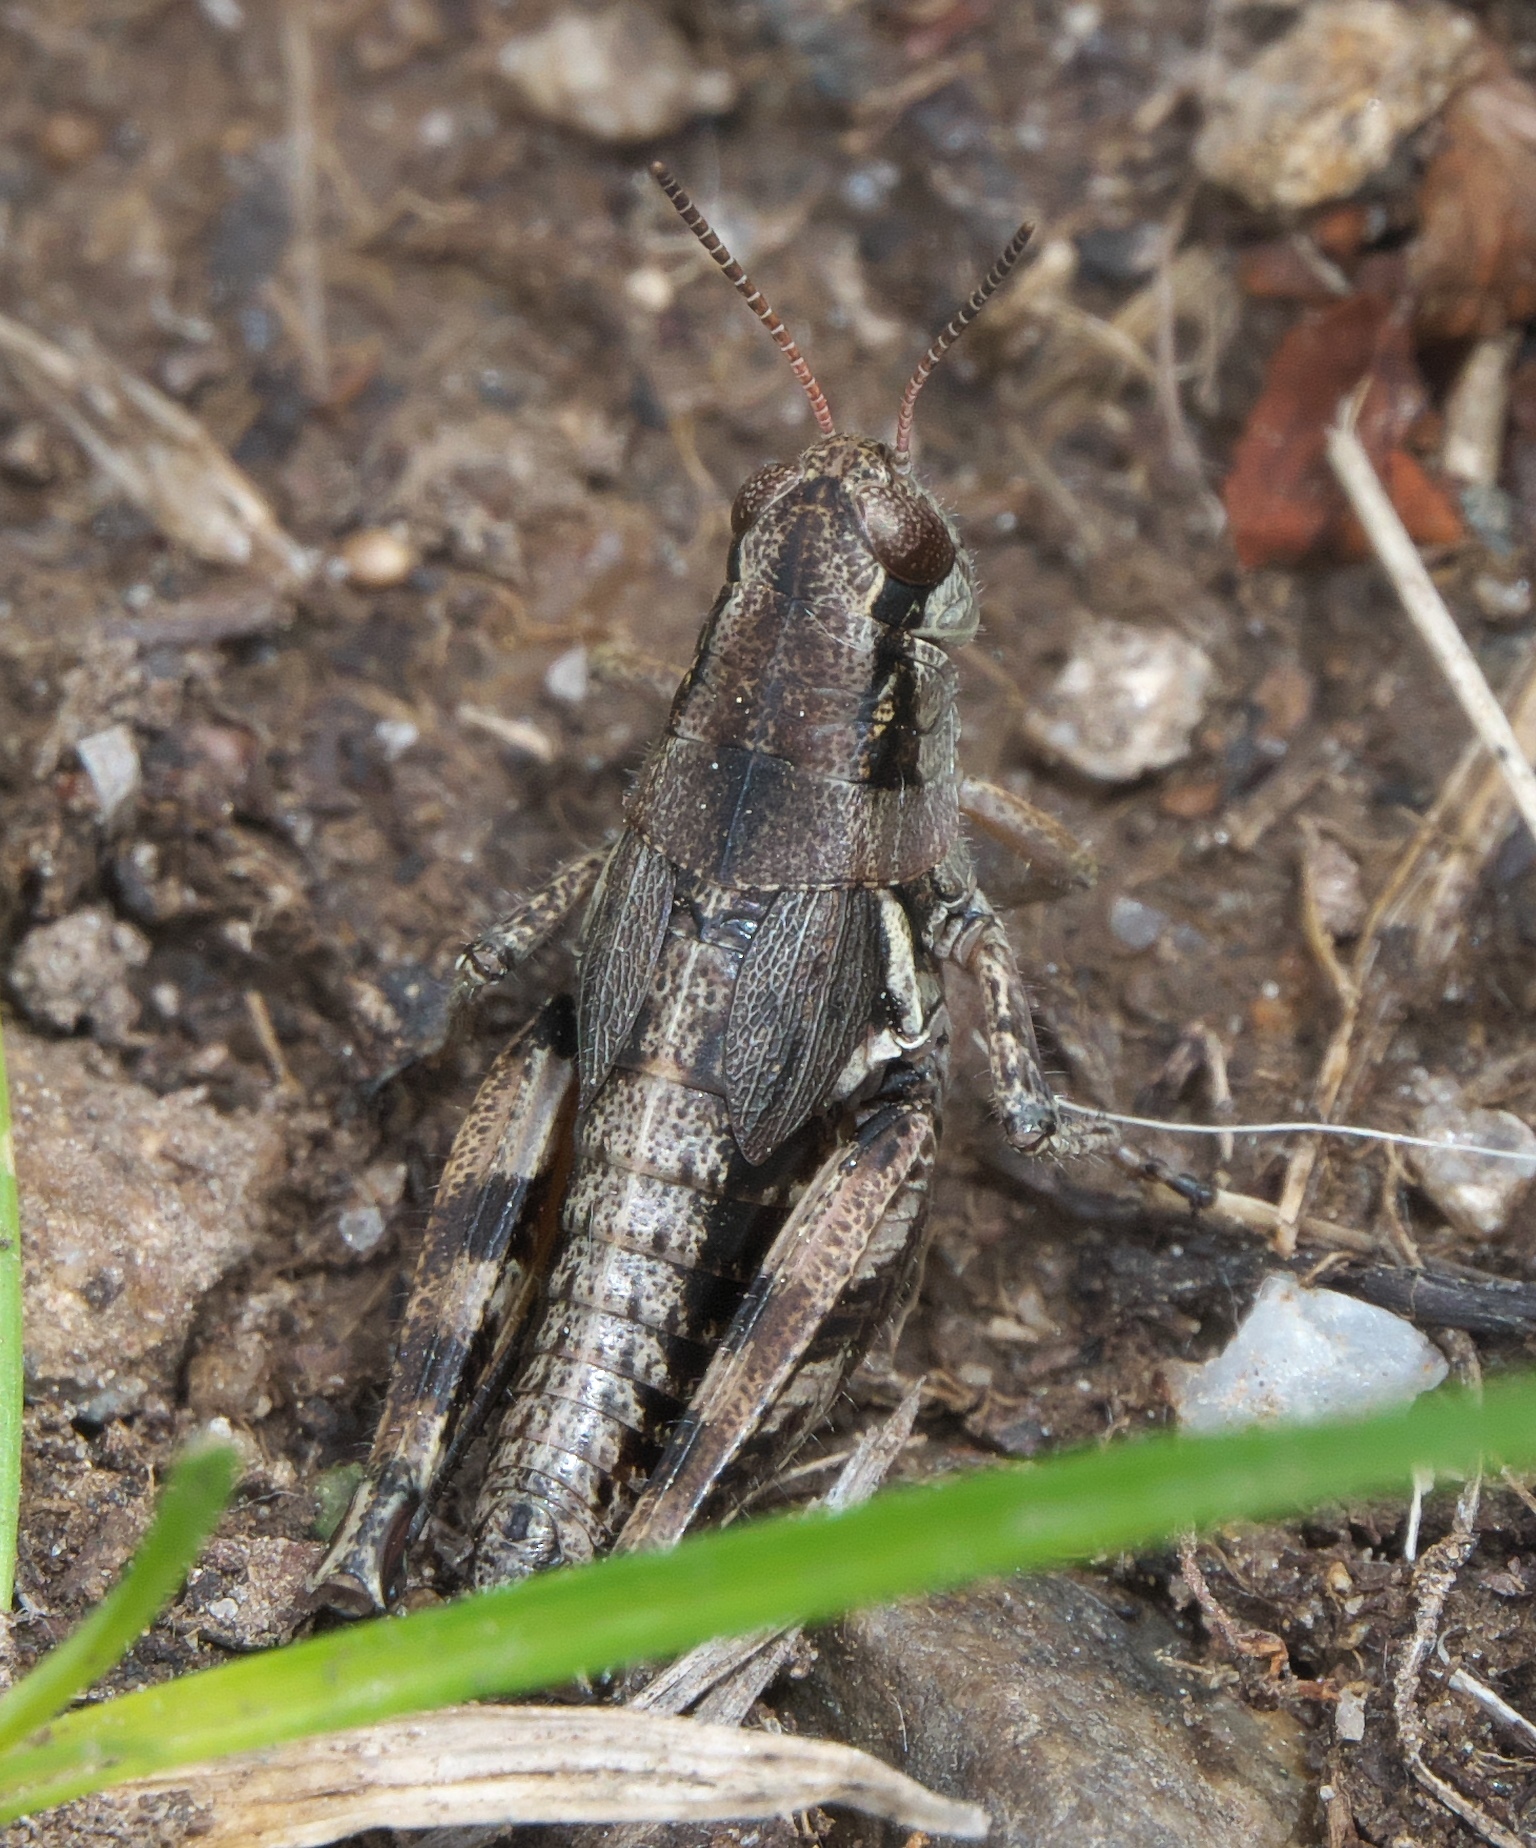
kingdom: Animalia
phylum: Arthropoda
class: Insecta
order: Orthoptera
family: Acrididae
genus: Melanoplus
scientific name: Melanoplus oregonensis
